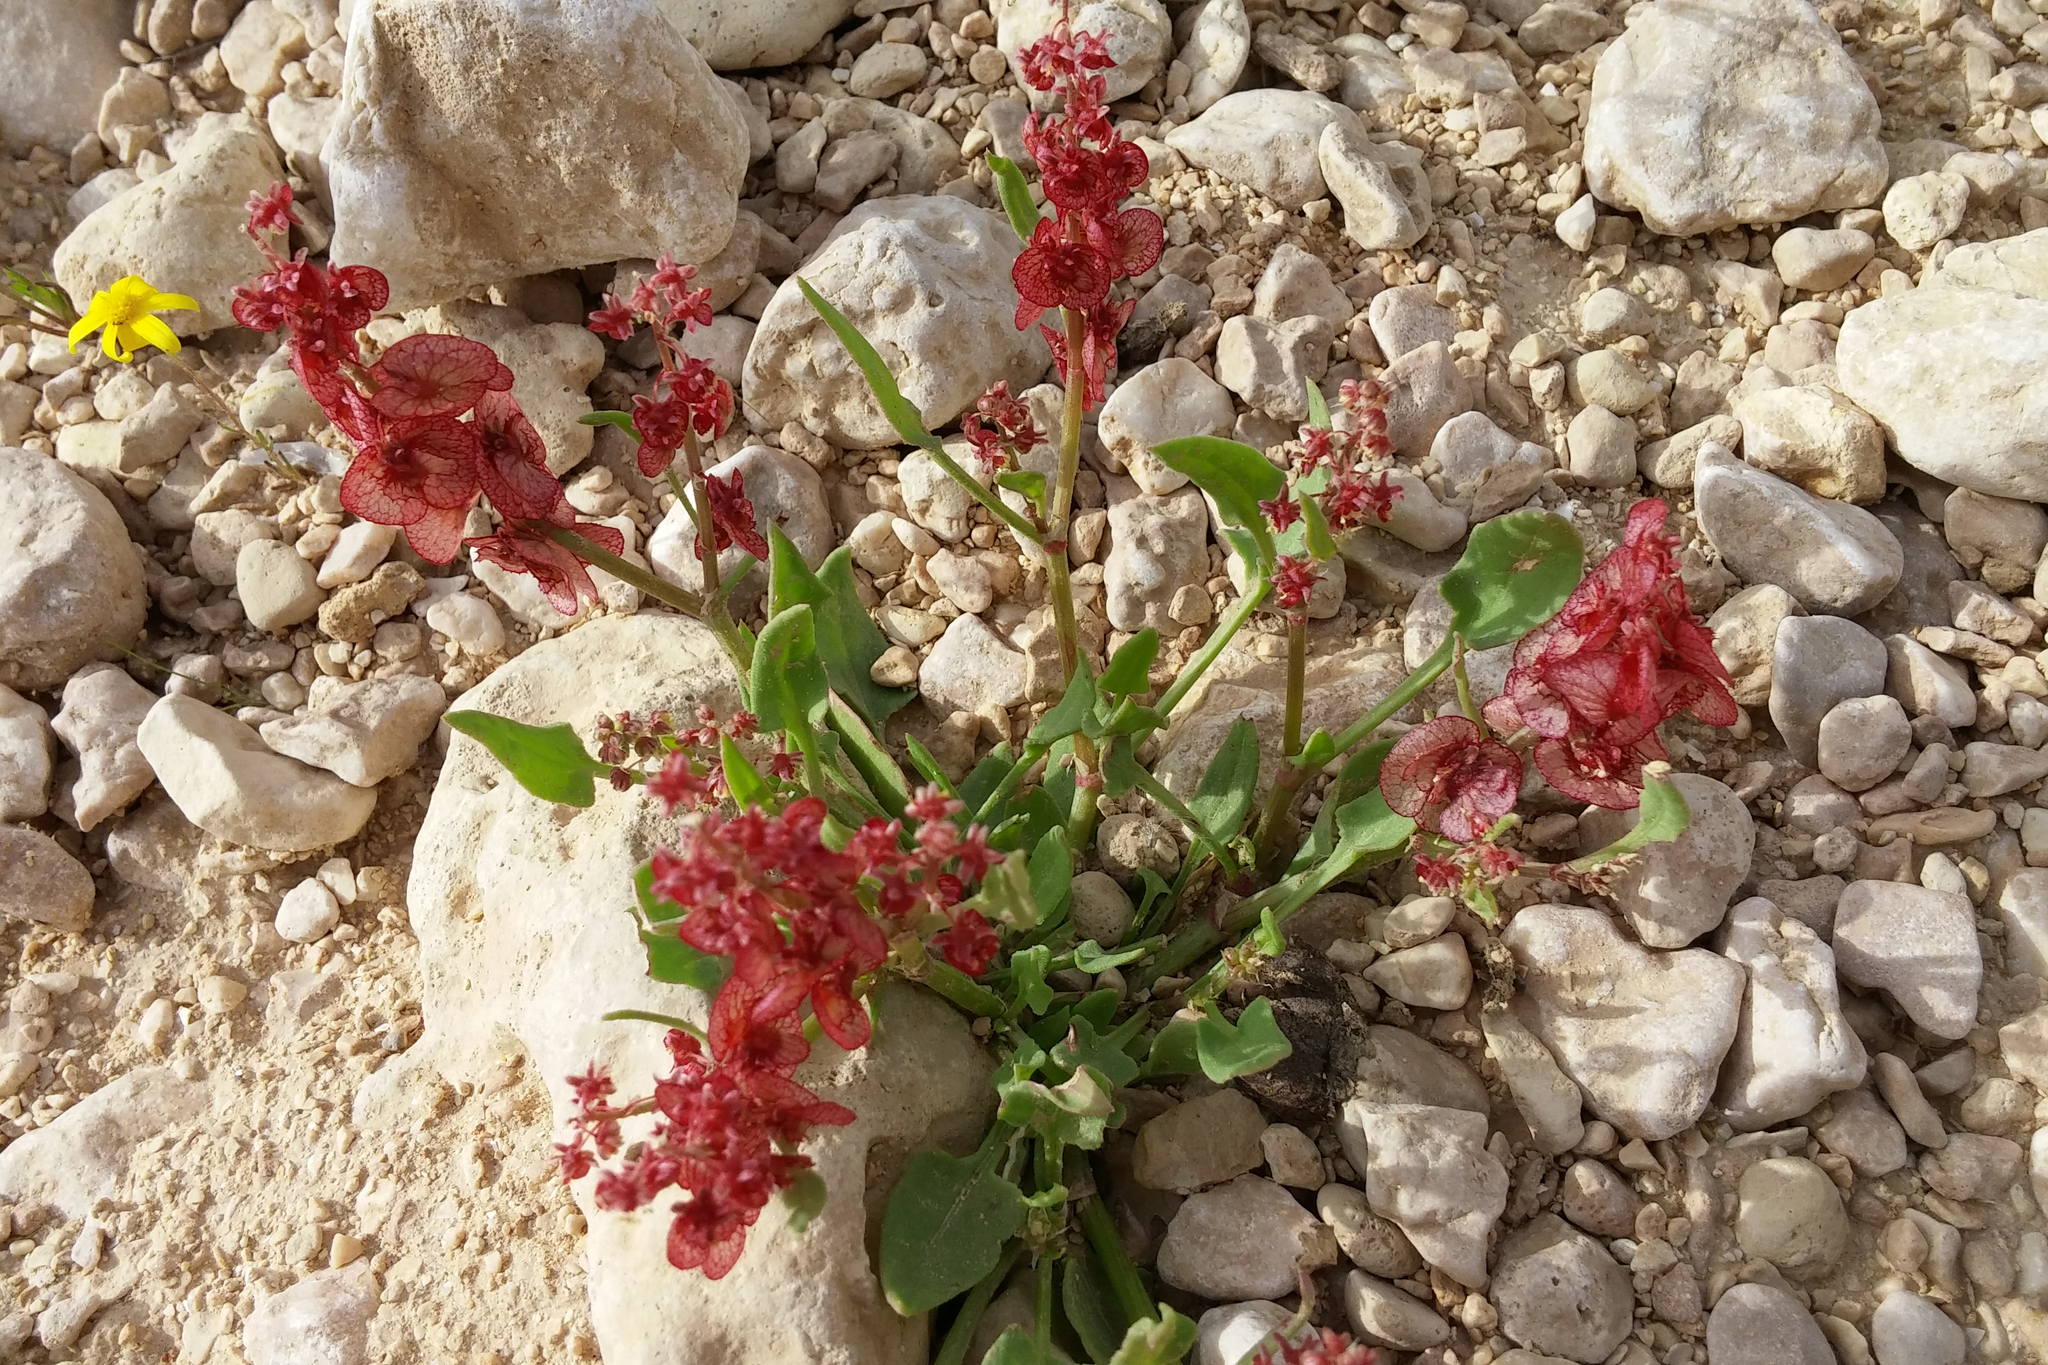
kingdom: Plantae
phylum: Tracheophyta
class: Magnoliopsida
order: Caryophyllales
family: Polygonaceae
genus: Rumex
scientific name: Rumex cyprius
